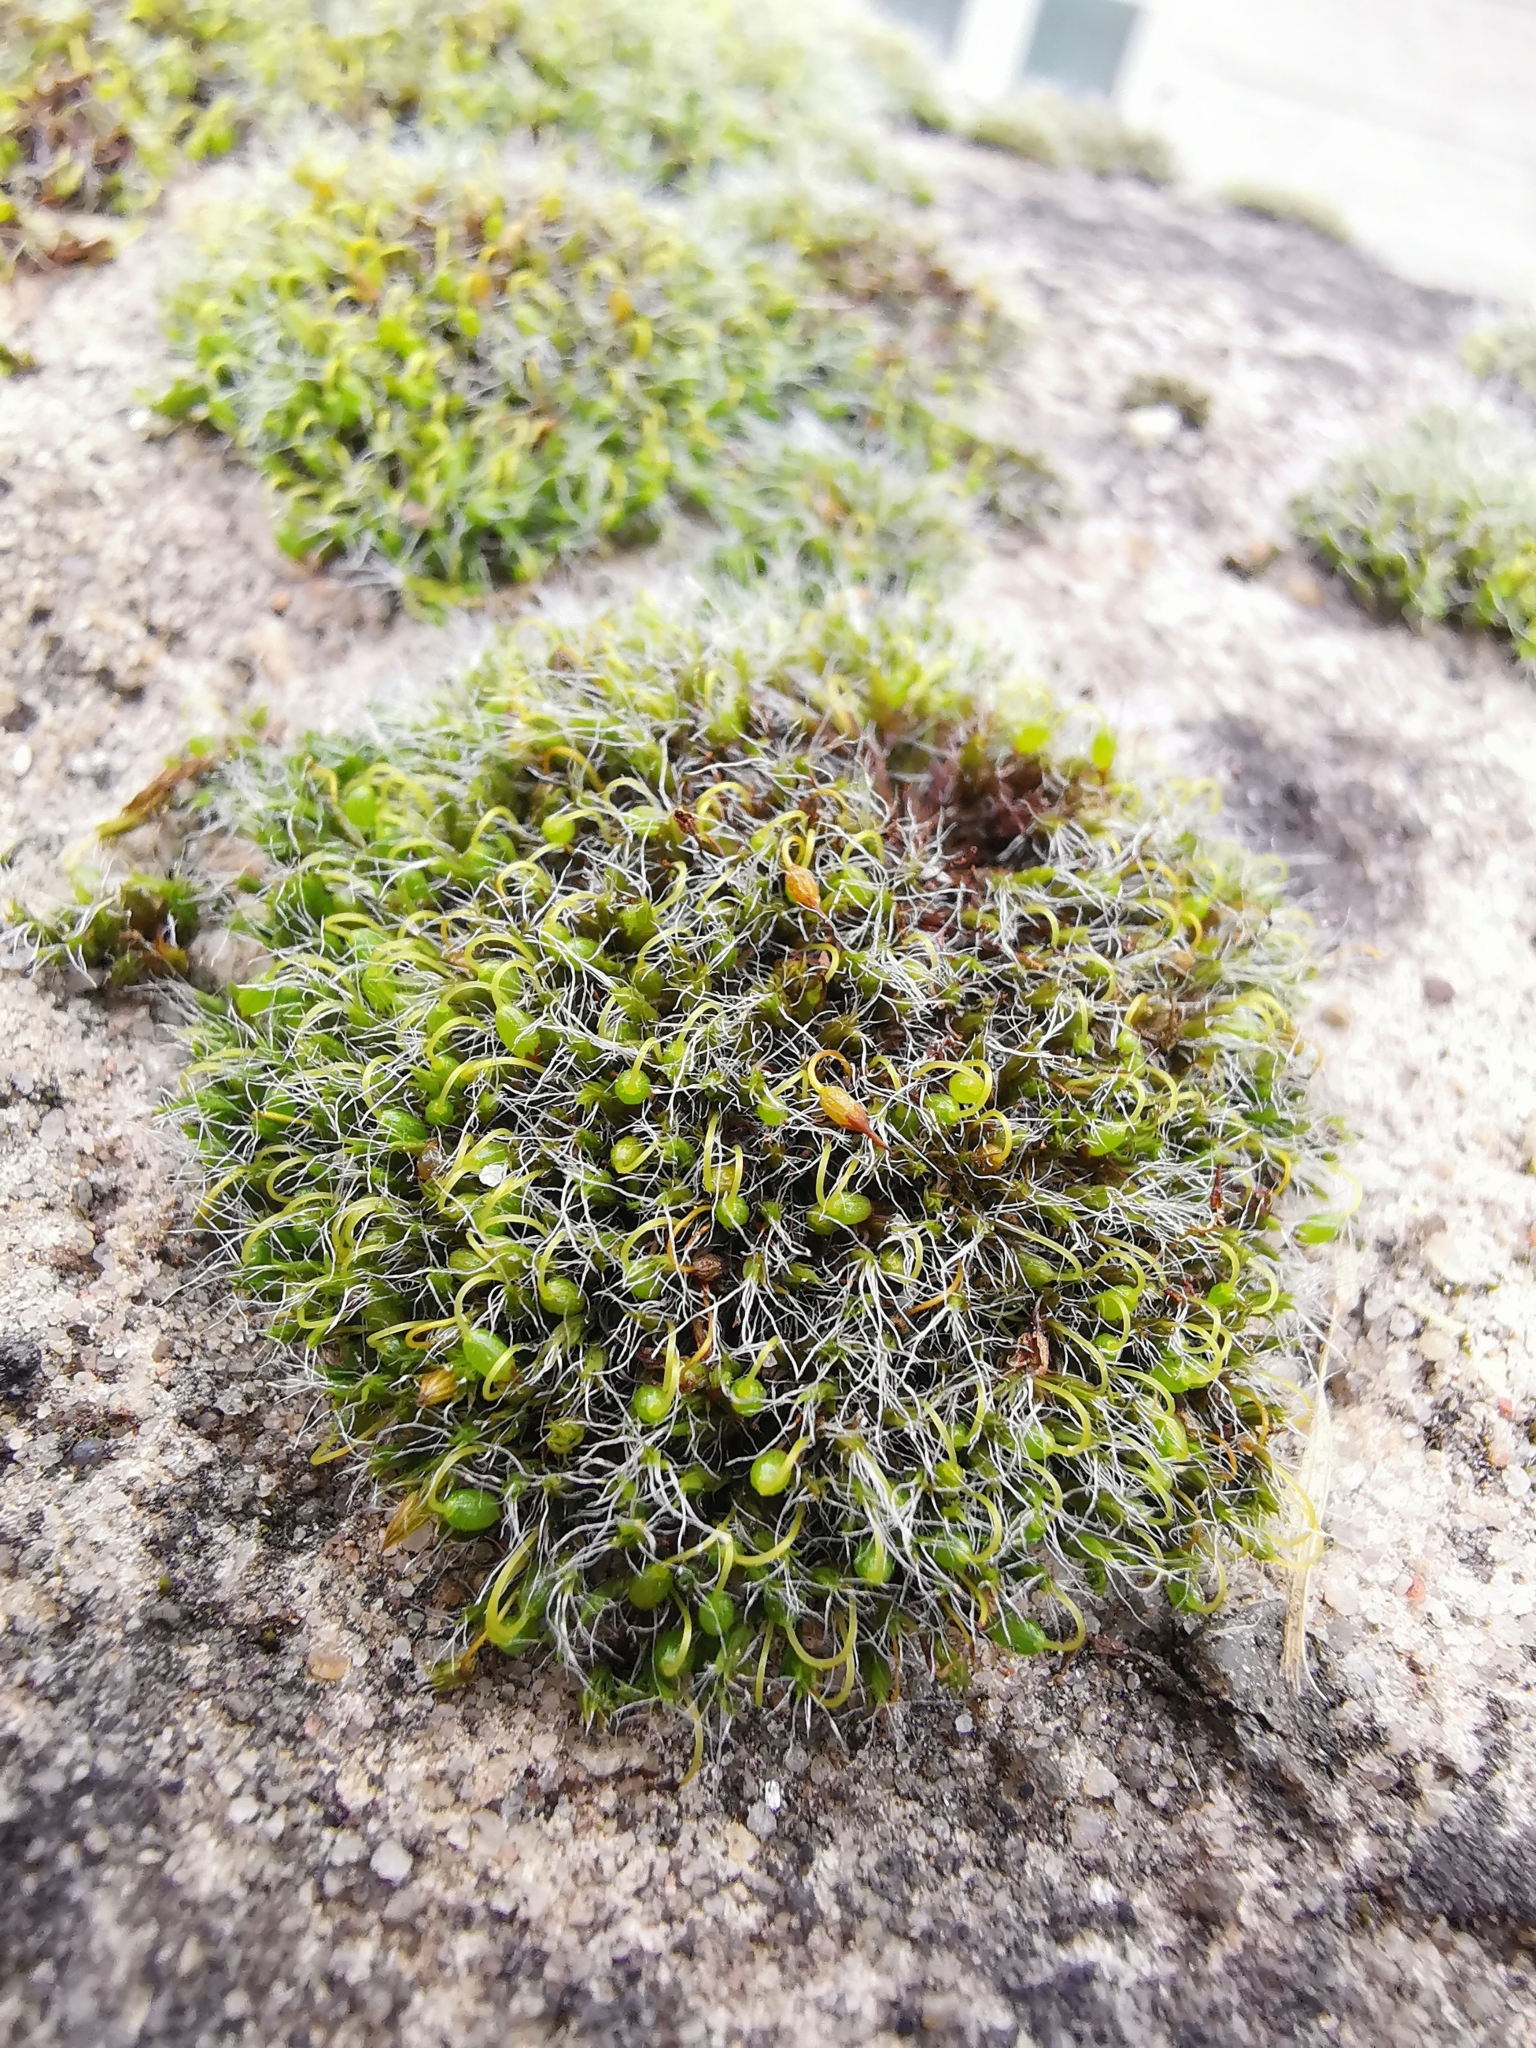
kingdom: Plantae
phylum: Bryophyta
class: Bryopsida
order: Grimmiales
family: Grimmiaceae
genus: Grimmia
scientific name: Grimmia pulvinata
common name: Grey-cushioned grimmia
